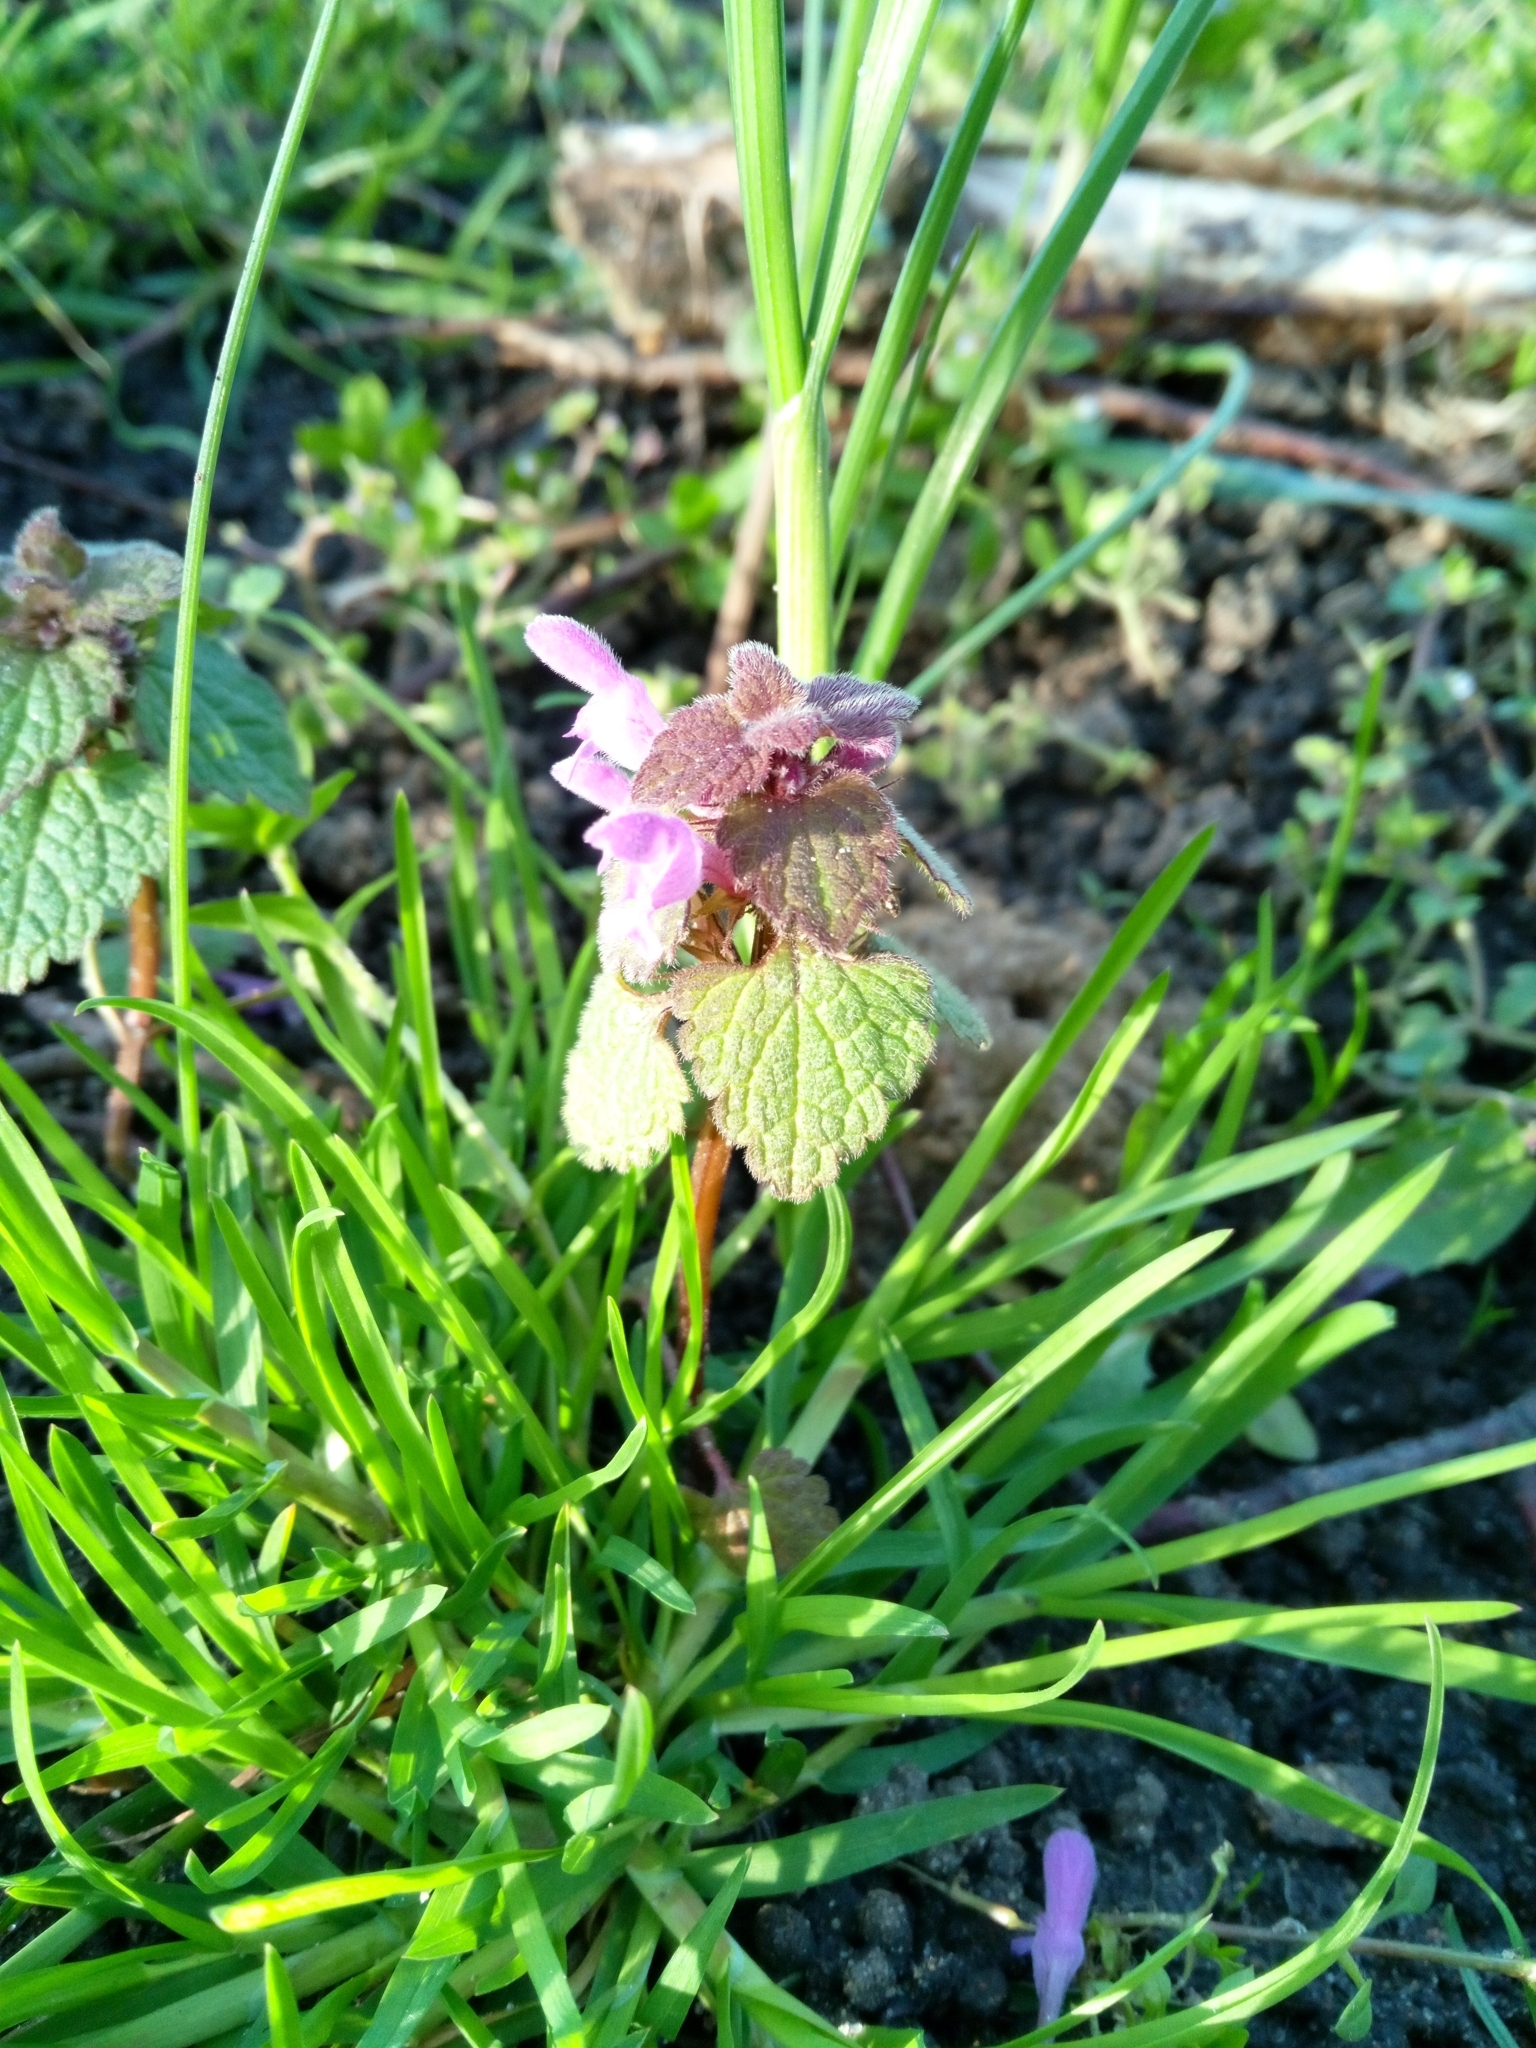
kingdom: Plantae
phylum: Tracheophyta
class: Magnoliopsida
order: Lamiales
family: Lamiaceae
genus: Lamium
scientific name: Lamium purpureum
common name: Red dead-nettle
